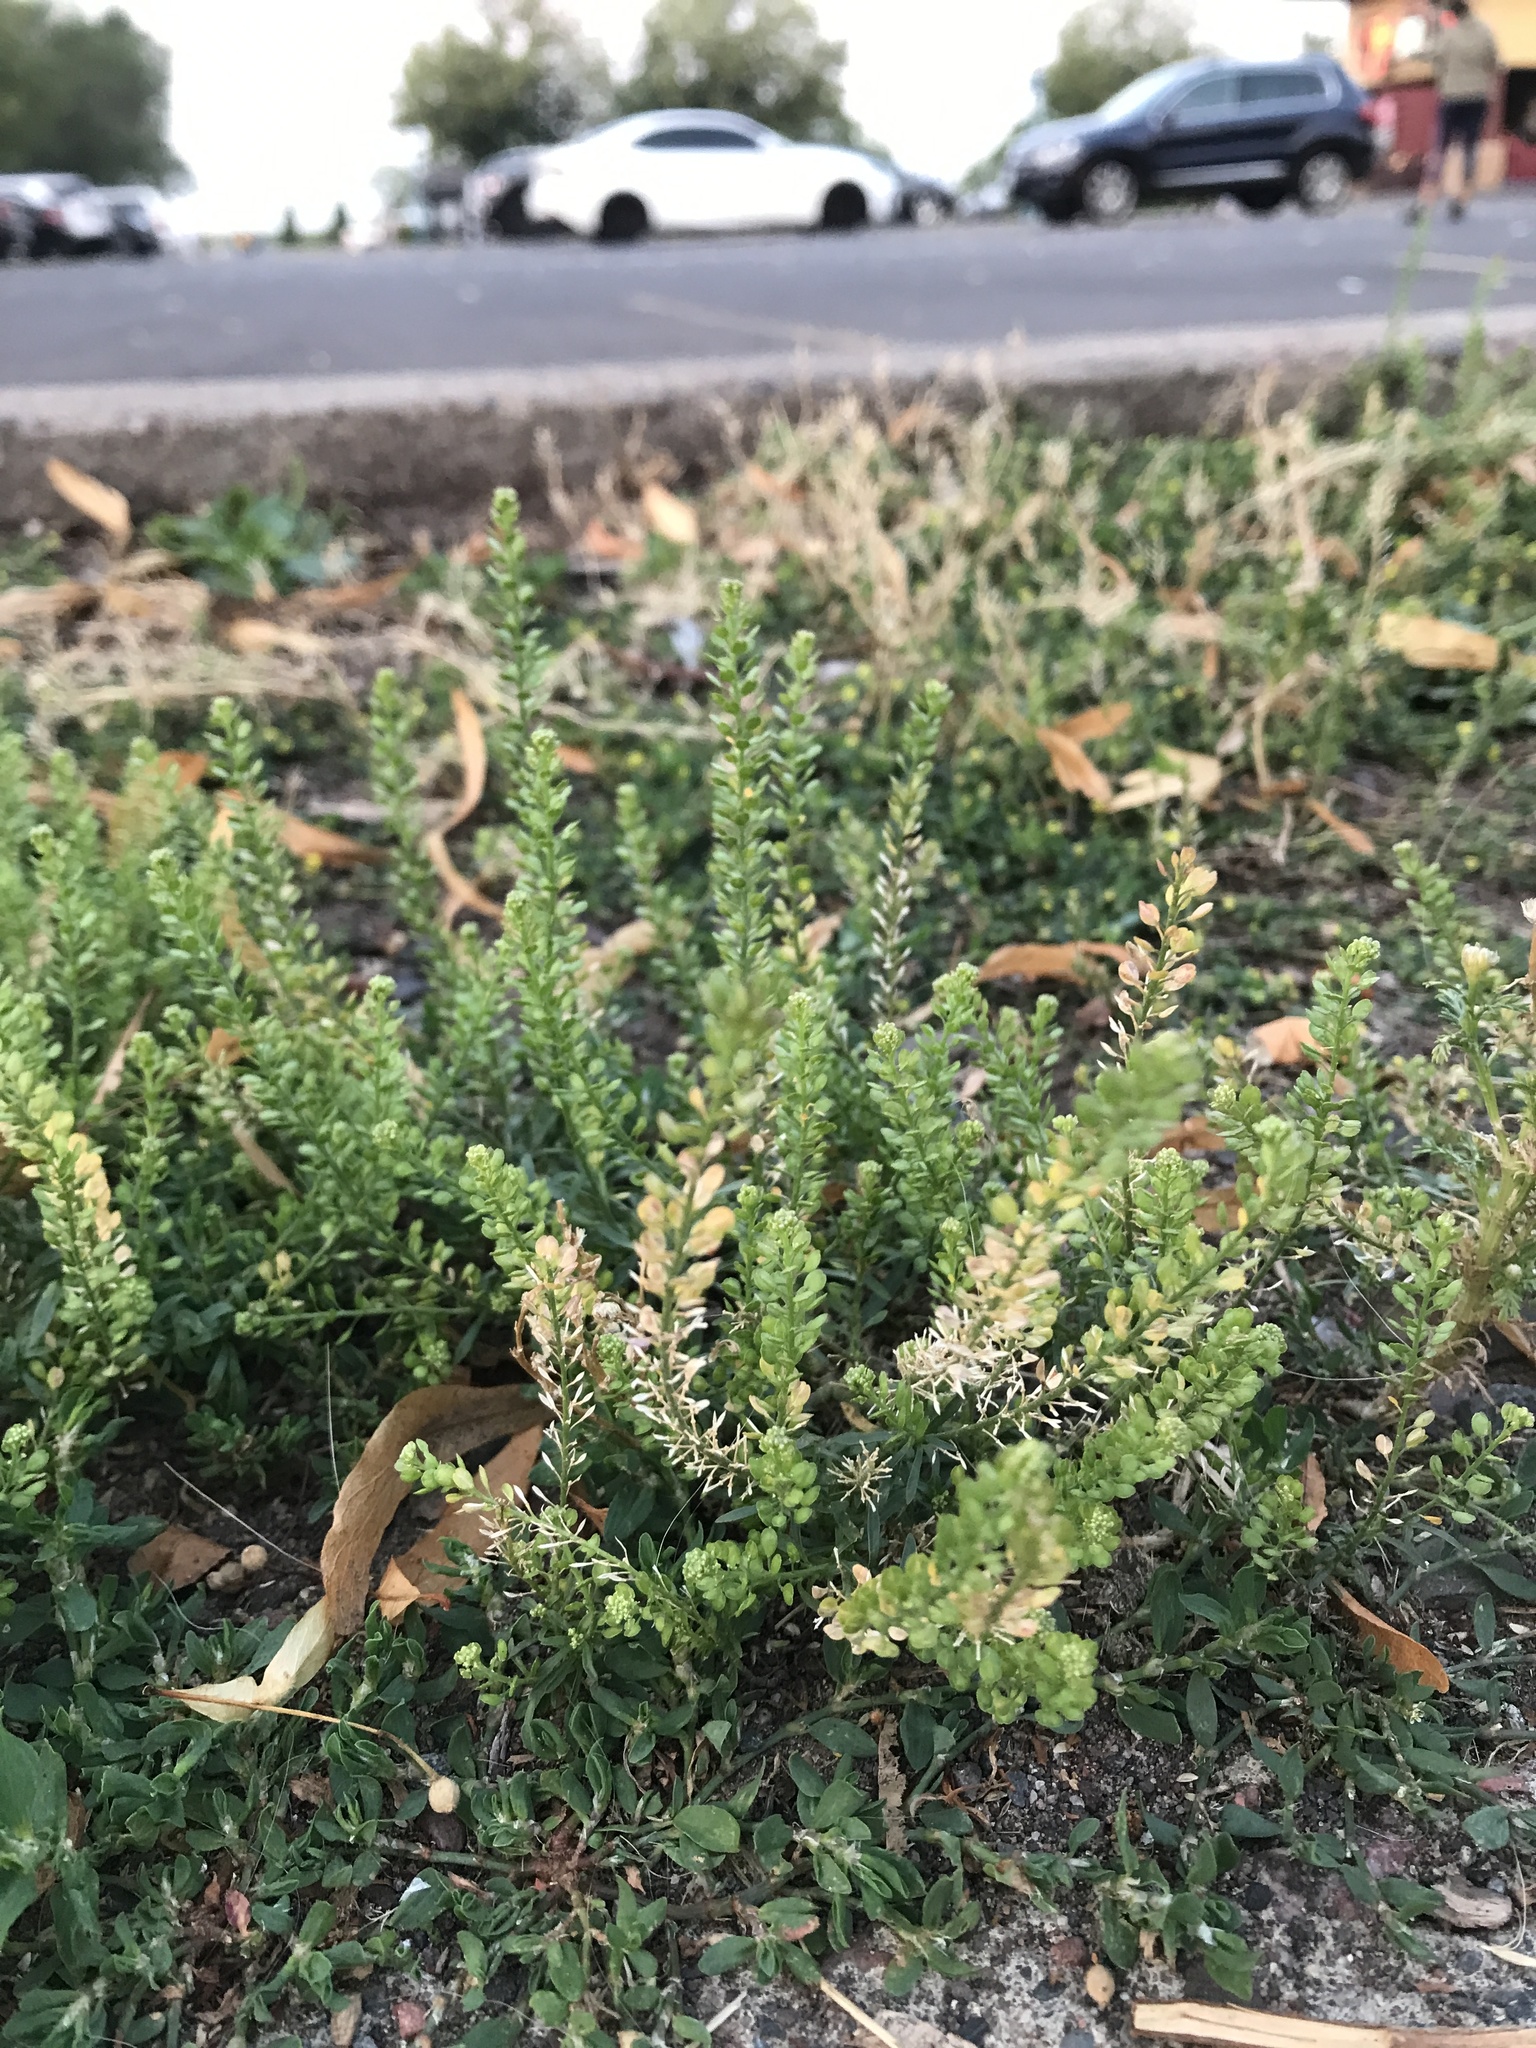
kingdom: Plantae
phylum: Tracheophyta
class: Magnoliopsida
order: Brassicales
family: Brassicaceae
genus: Lepidium
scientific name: Lepidium densiflorum
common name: Miner's pepperwort
